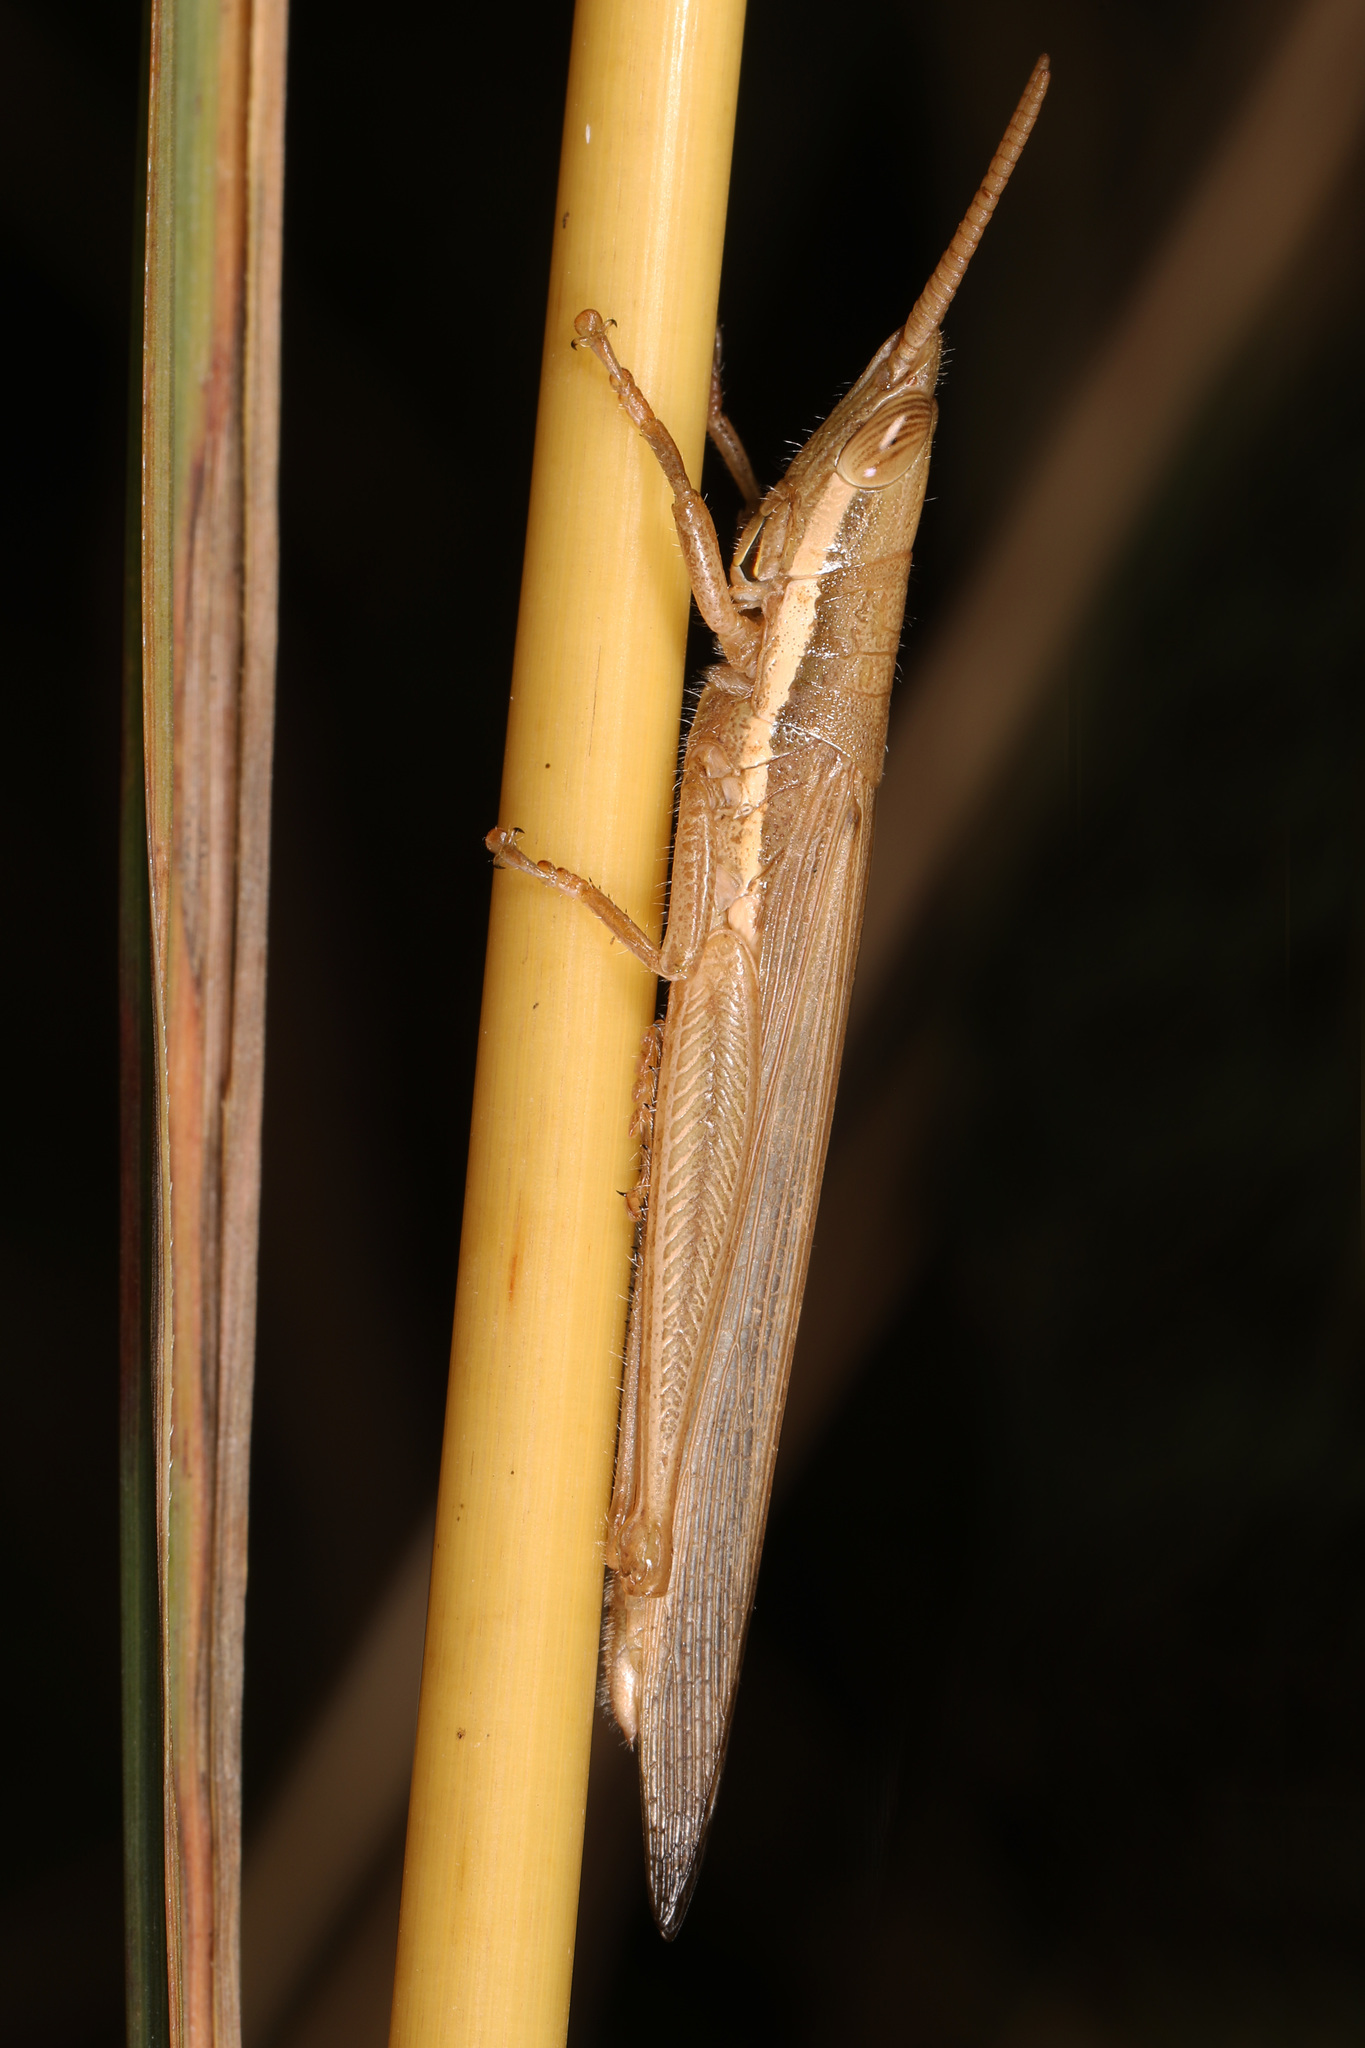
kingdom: Animalia
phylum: Arthropoda
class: Insecta
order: Orthoptera
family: Acrididae
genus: Leptysma
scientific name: Leptysma marginicollis
